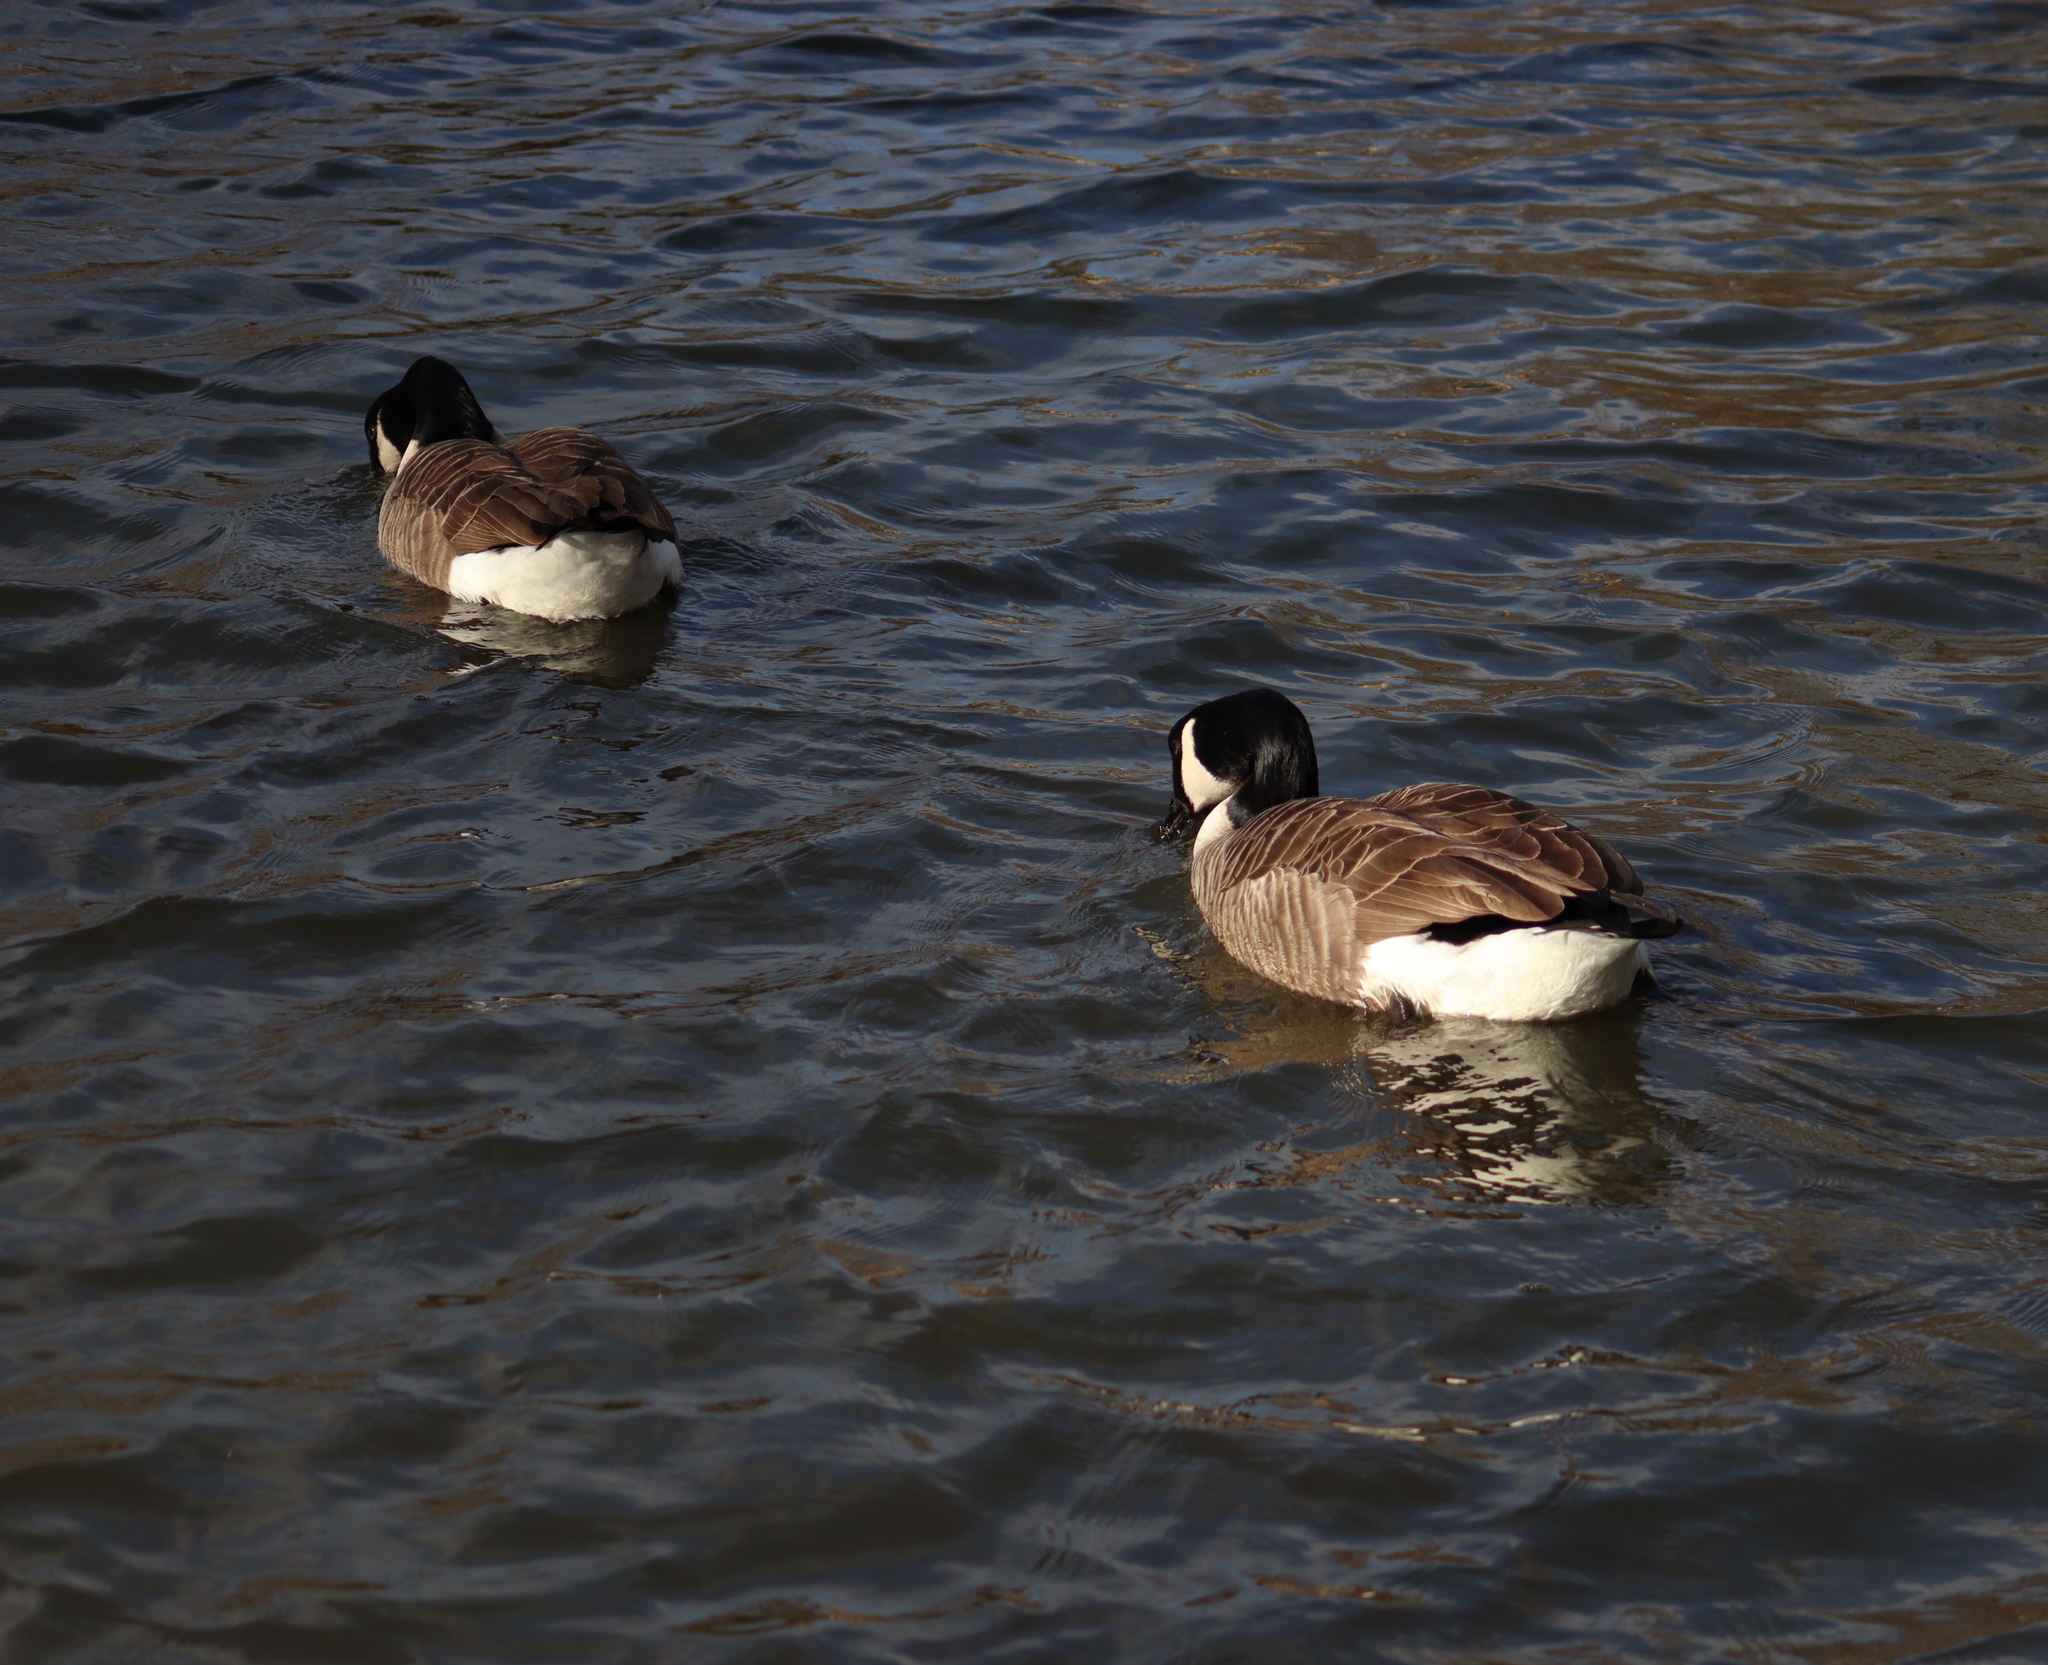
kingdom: Animalia
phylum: Chordata
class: Aves
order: Anseriformes
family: Anatidae
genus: Branta
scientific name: Branta canadensis
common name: Canada goose
